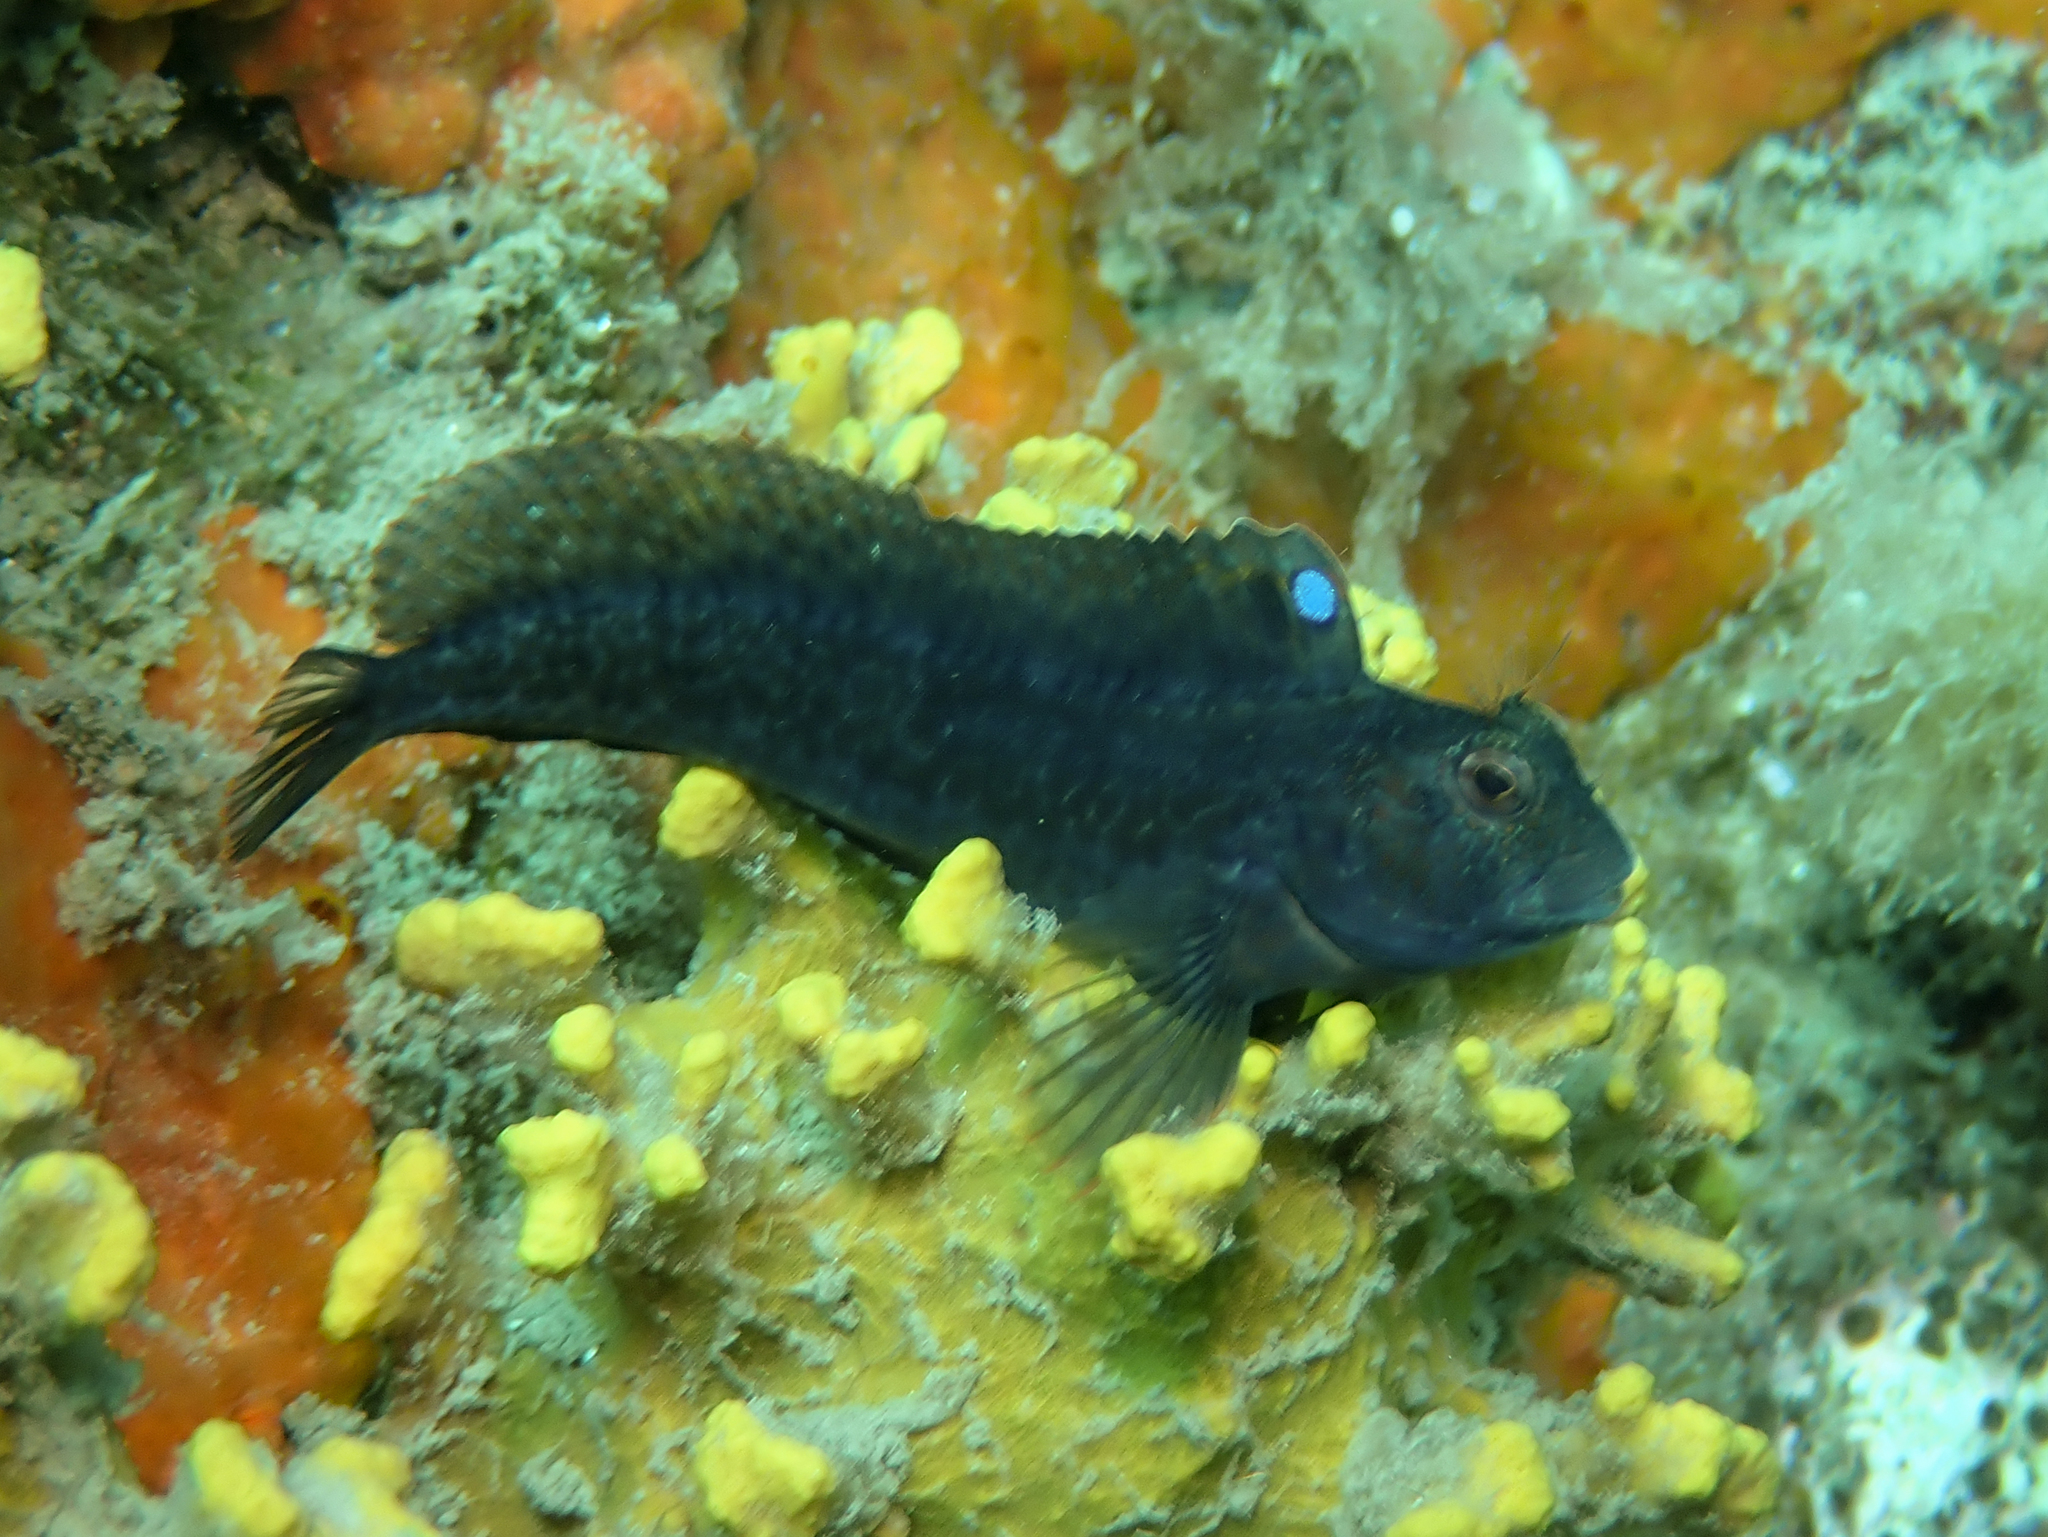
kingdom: Animalia
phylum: Chordata
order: Perciformes
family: Blenniidae
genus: Parablennius
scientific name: Parablennius pilicornis
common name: Ringneck blenny
